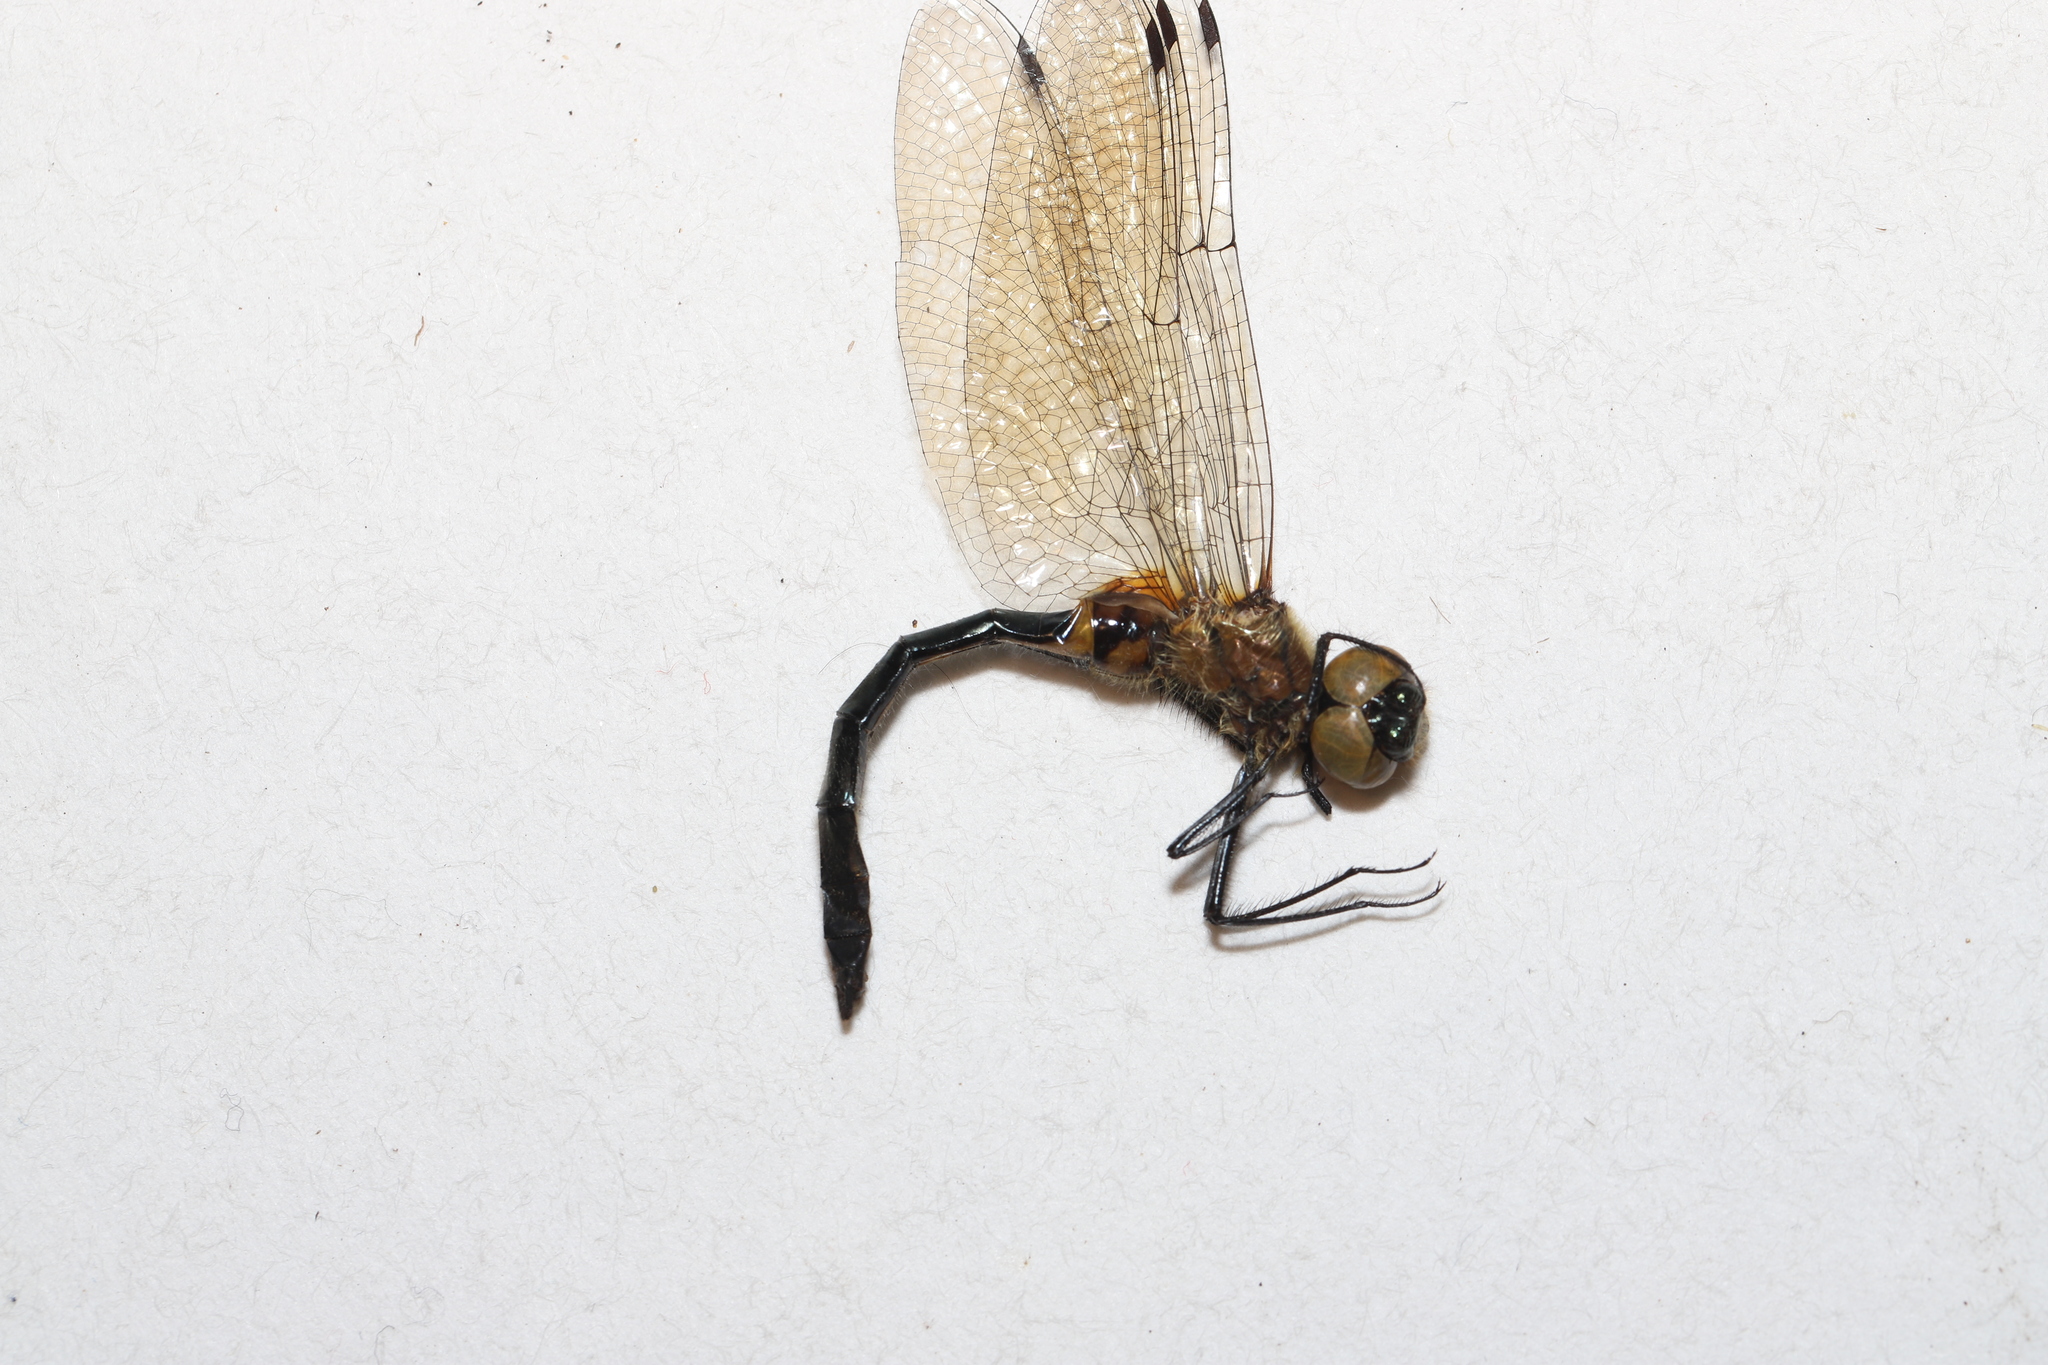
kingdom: Animalia
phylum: Arthropoda
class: Insecta
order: Odonata
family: Corduliidae
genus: Dorocordulia
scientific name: Dorocordulia libera
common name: Racket-tailed emerald
